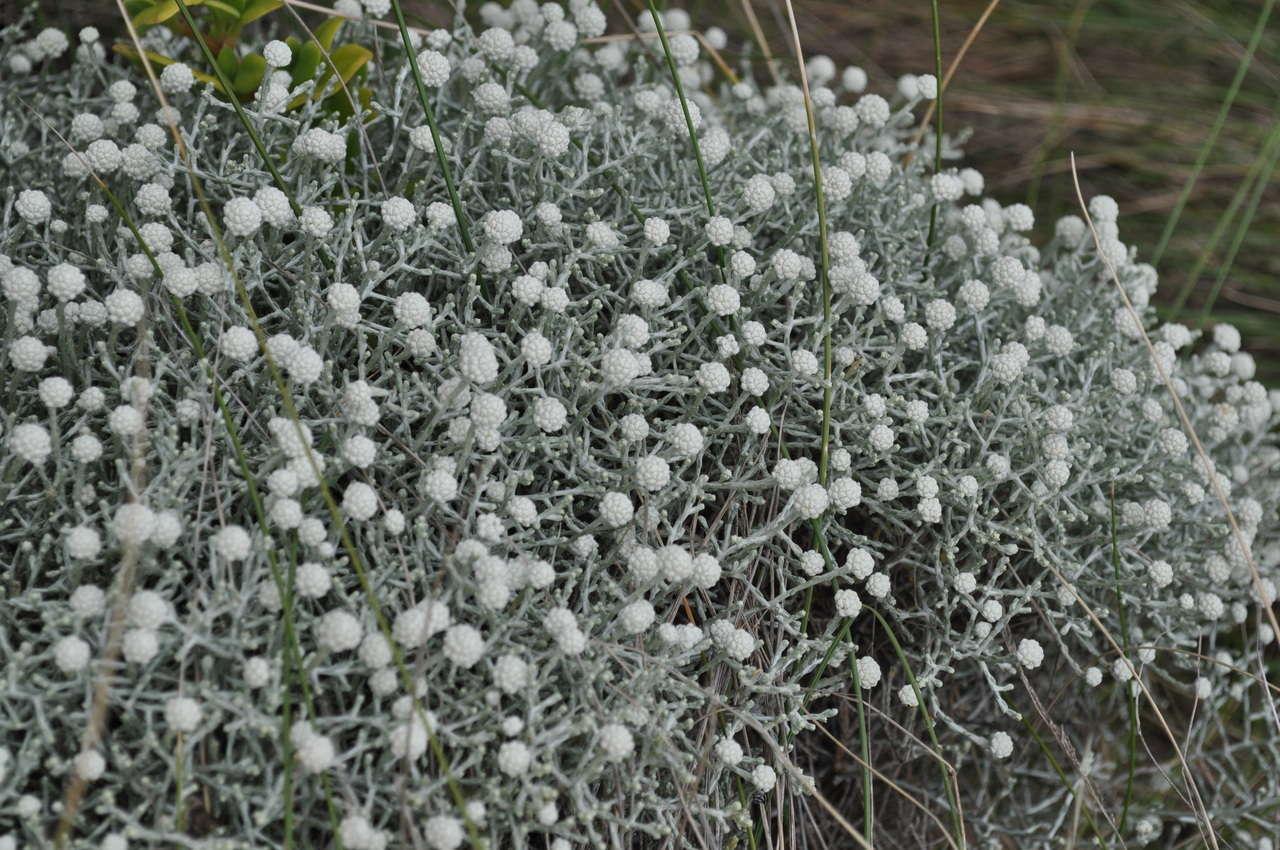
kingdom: Plantae
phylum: Tracheophyta
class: Magnoliopsida
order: Asterales
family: Asteraceae
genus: Calocephalus
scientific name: Calocephalus brownii
